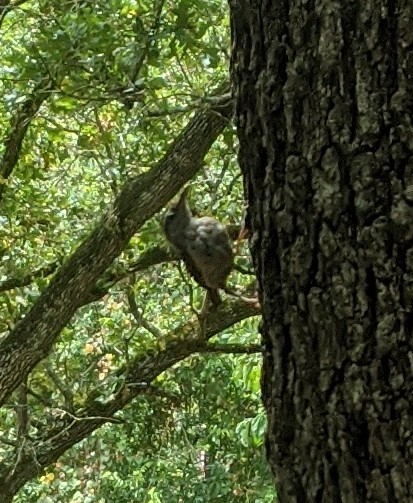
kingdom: Animalia
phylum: Chordata
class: Aves
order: Passeriformes
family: Troglodytidae
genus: Thryothorus
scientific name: Thryothorus ludovicianus
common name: Carolina wren
